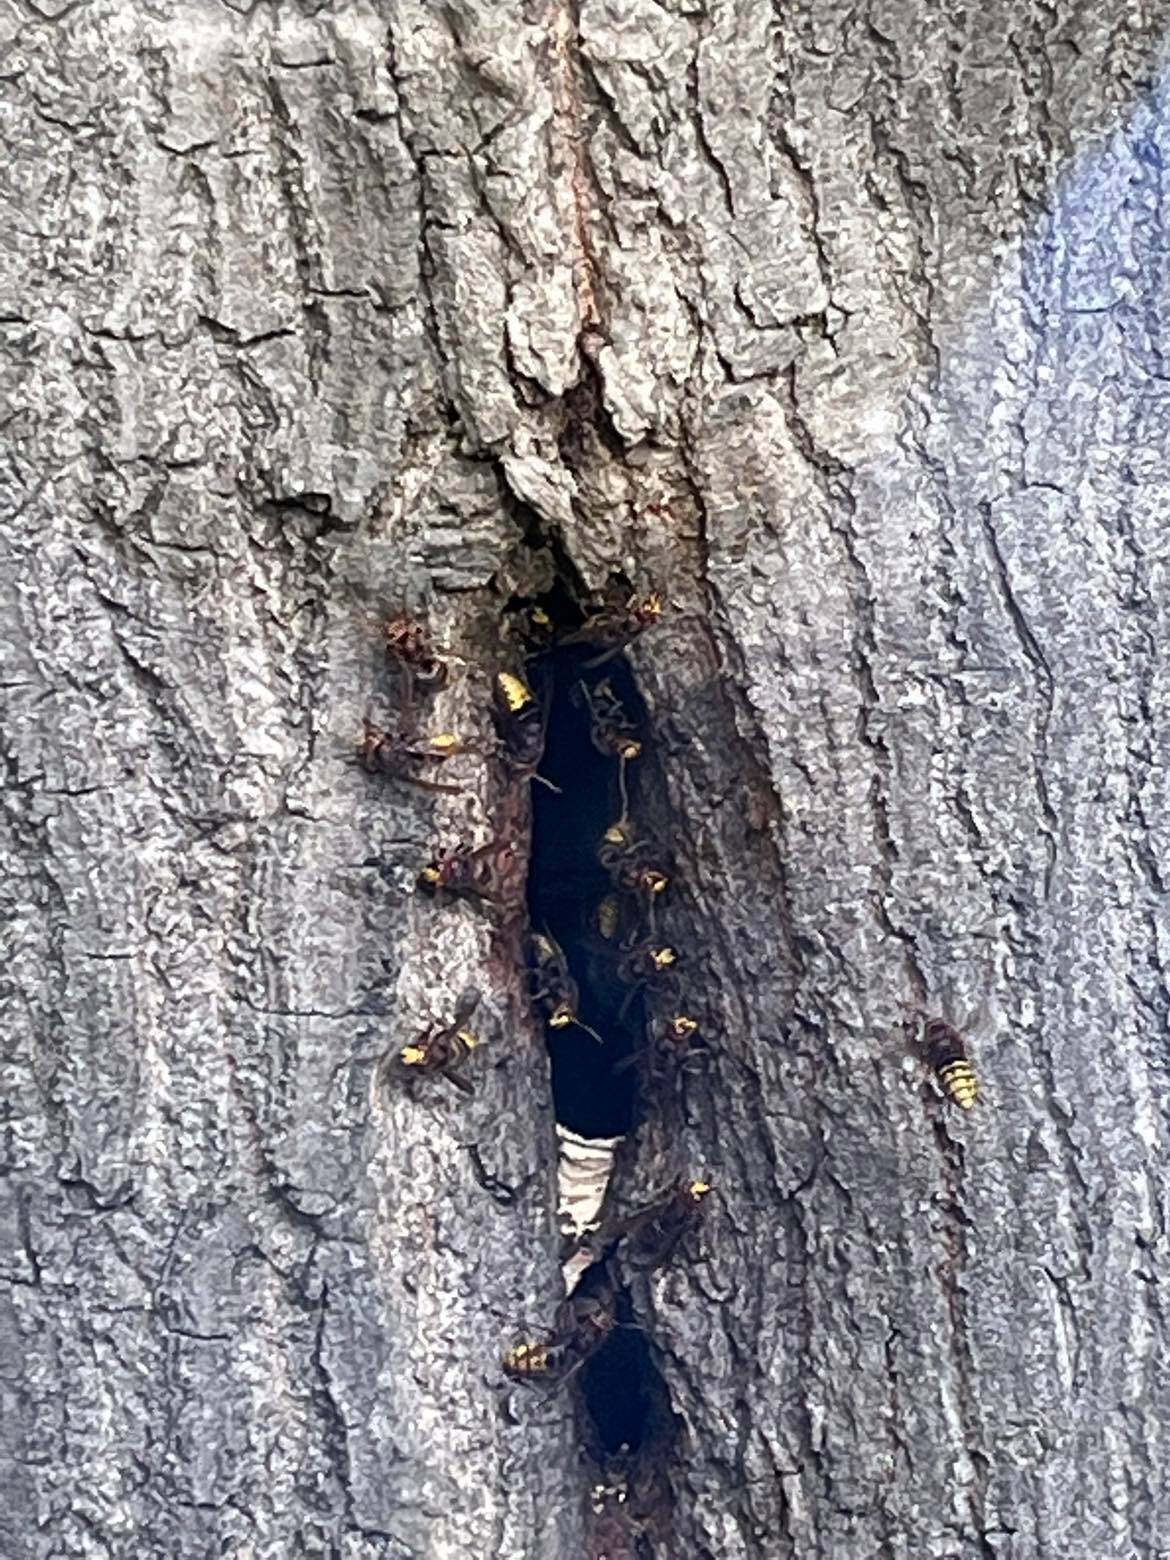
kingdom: Animalia
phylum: Arthropoda
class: Insecta
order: Hymenoptera
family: Vespidae
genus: Vespa
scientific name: Vespa crabro
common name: Hornet
